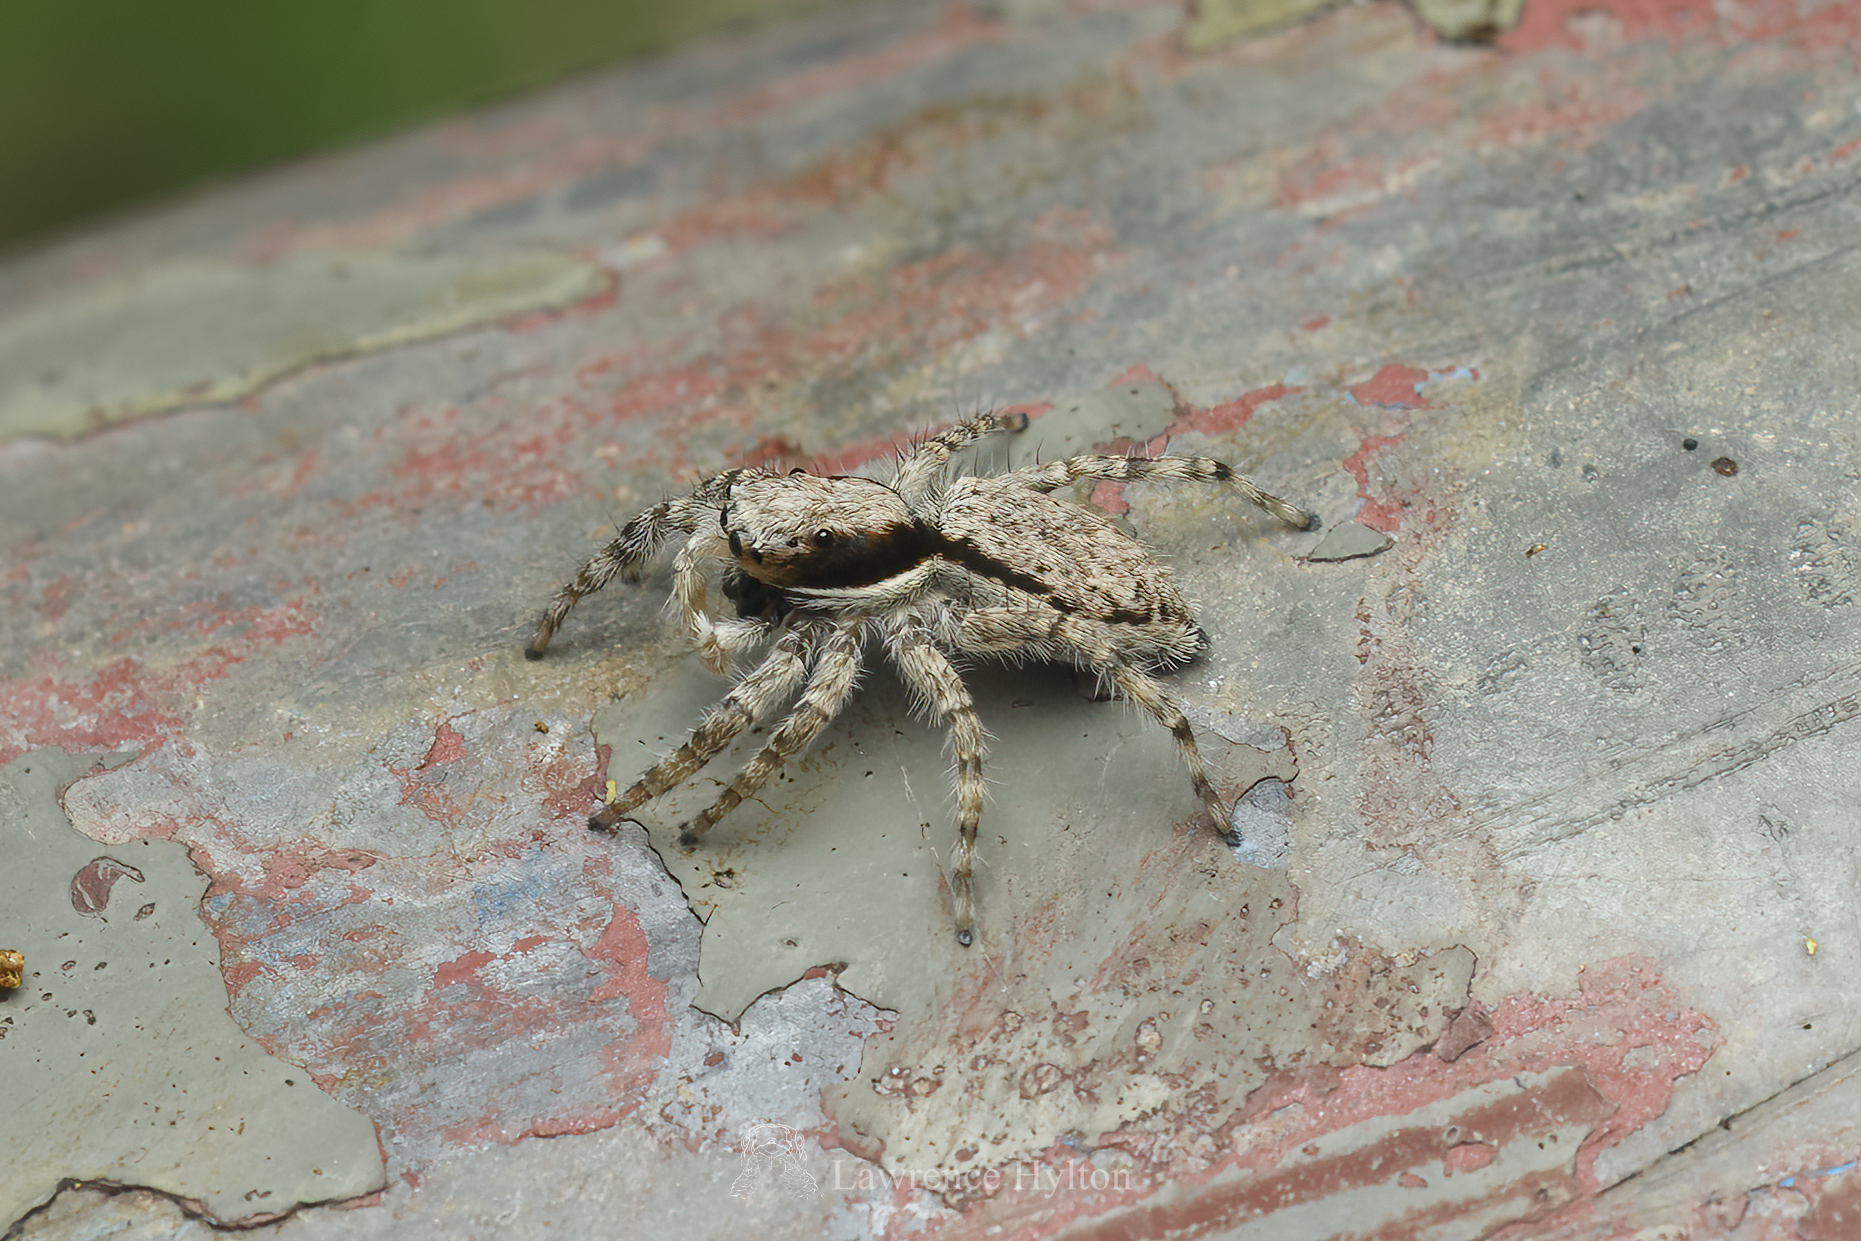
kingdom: Animalia
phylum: Arthropoda
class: Arachnida
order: Araneae
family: Salticidae
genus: Menemerus
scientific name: Menemerus bivittatus
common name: Gray wall jumper
